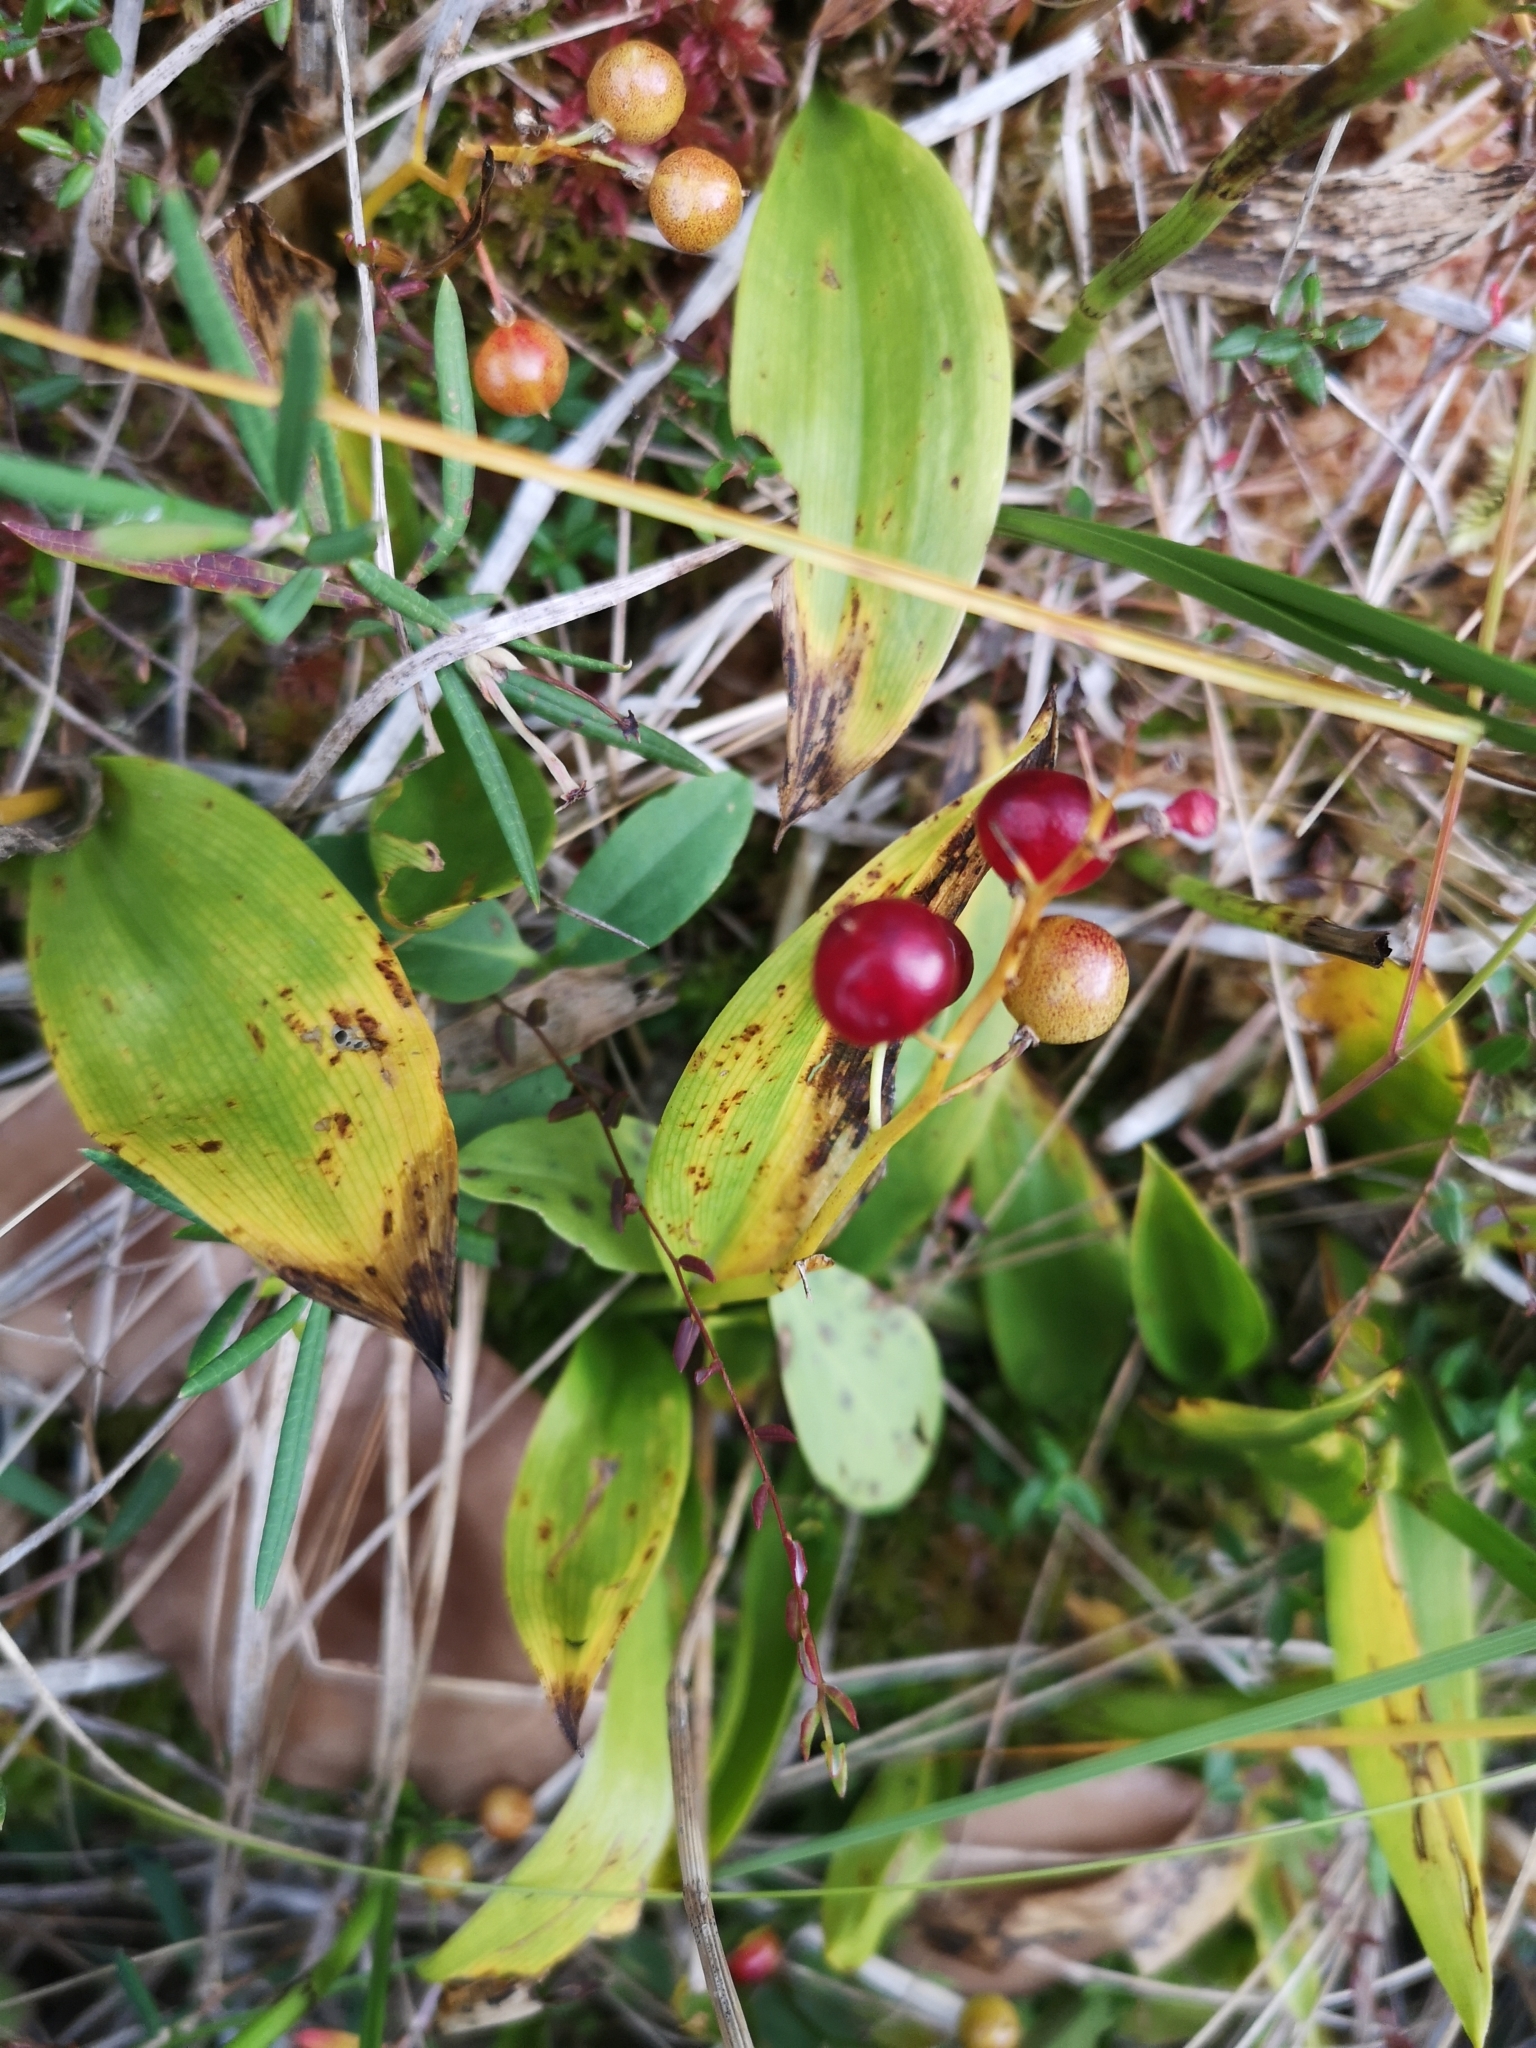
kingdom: Plantae
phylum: Tracheophyta
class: Liliopsida
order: Asparagales
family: Asparagaceae
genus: Maianthemum
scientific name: Maianthemum trifolium
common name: Swamp false solomon's seal
